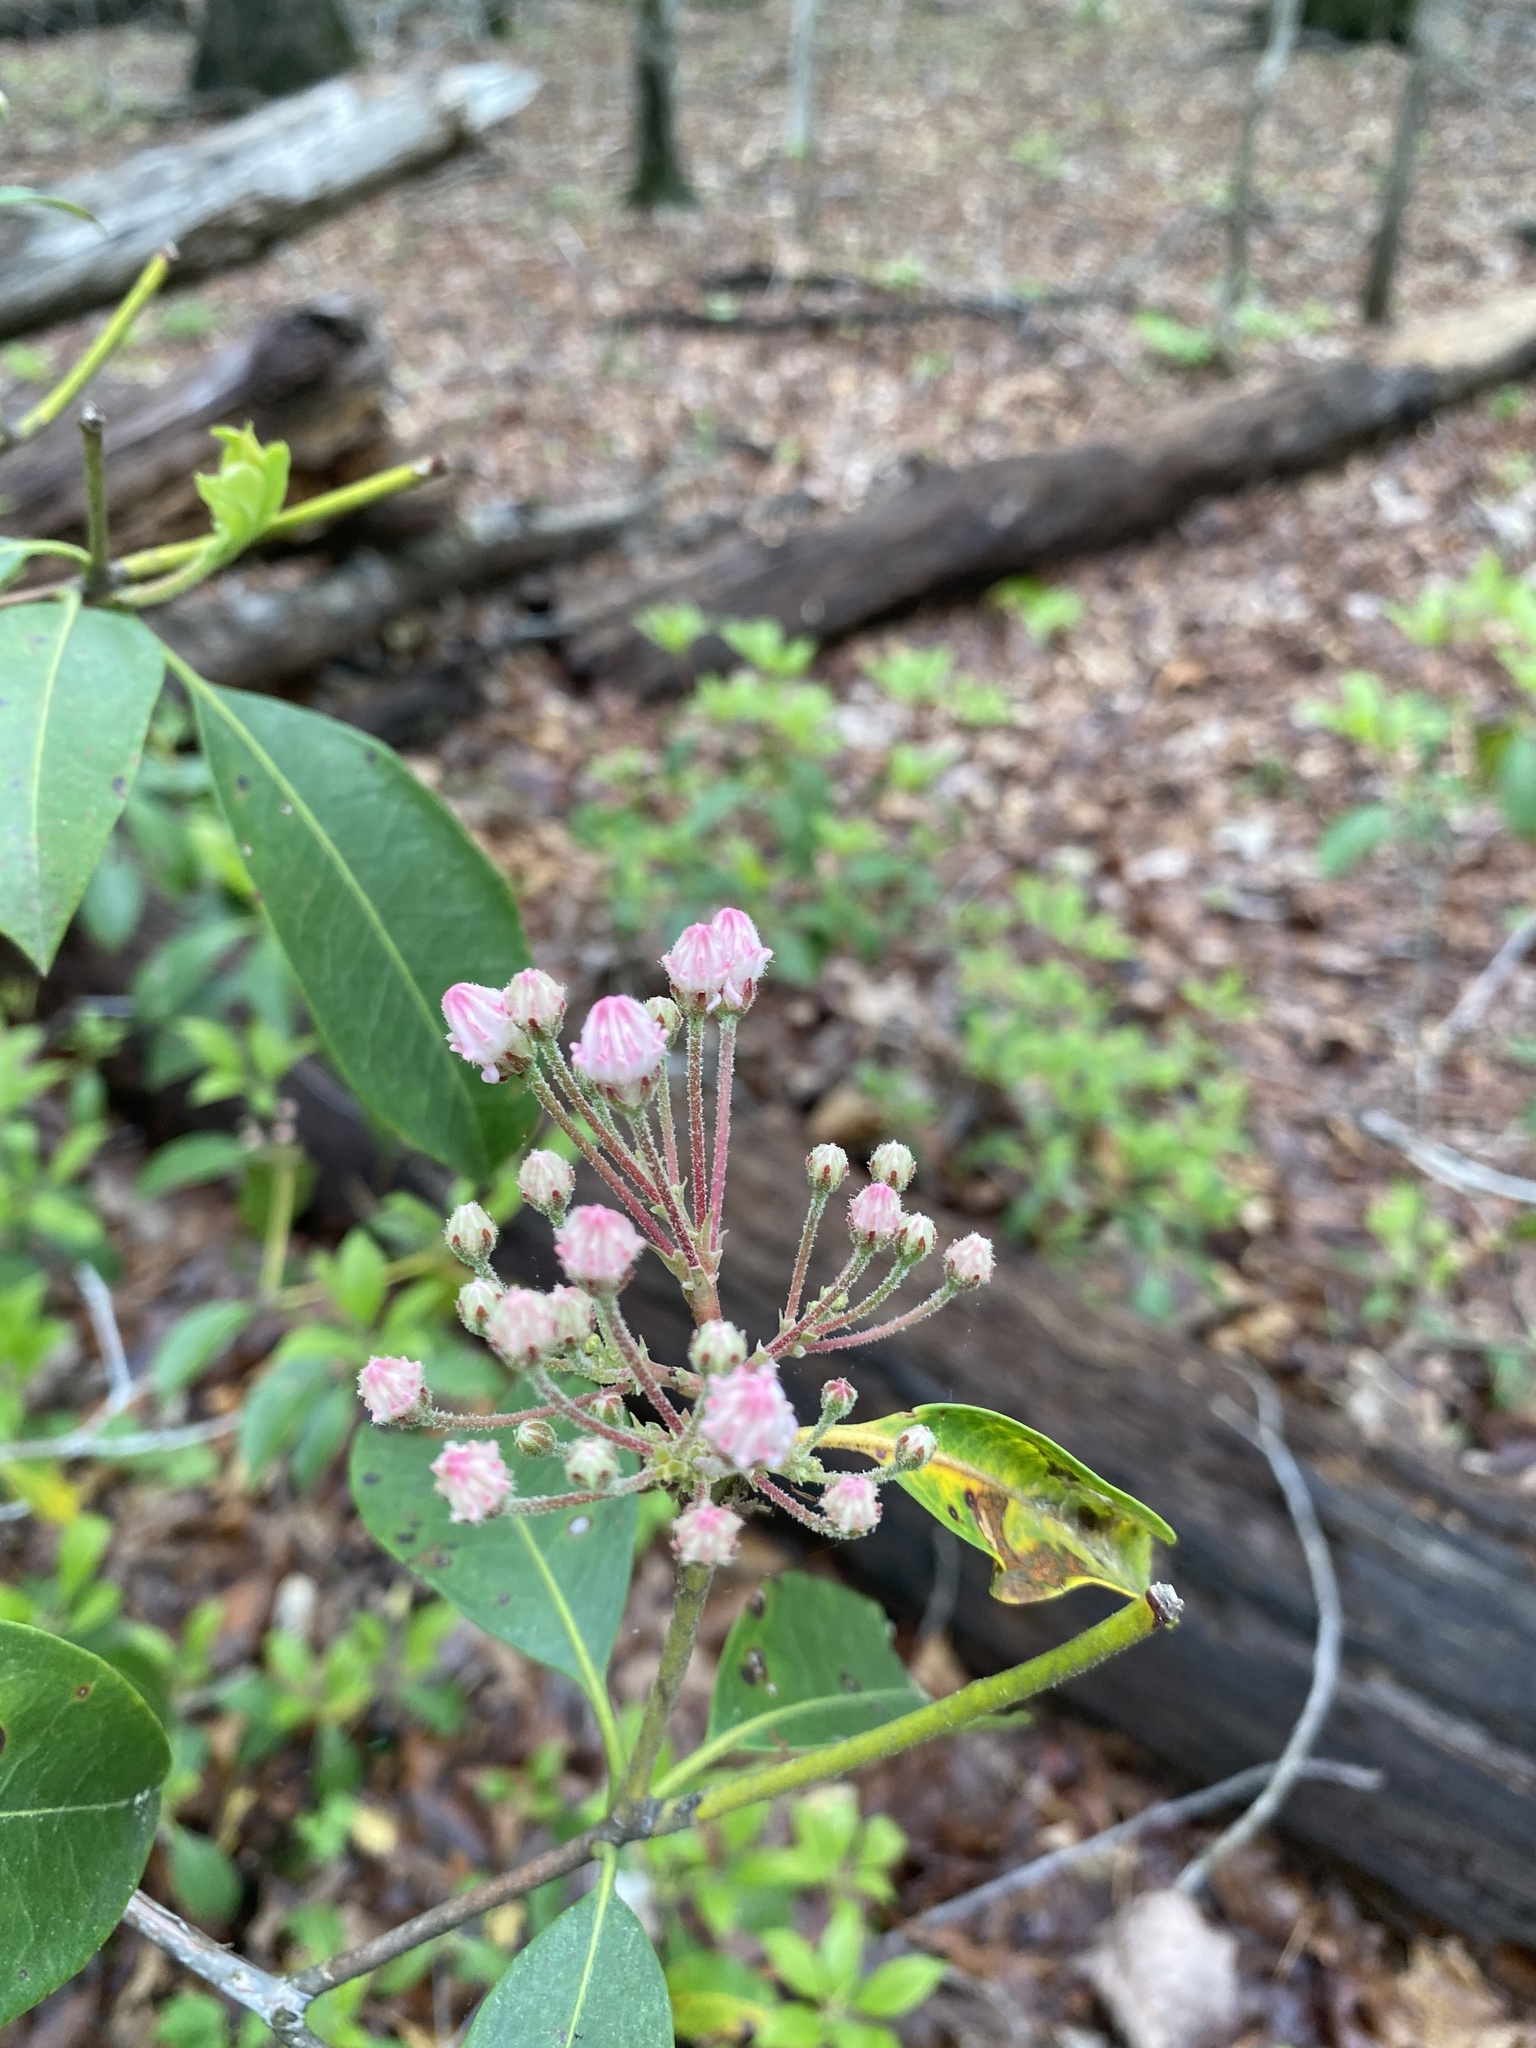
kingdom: Plantae
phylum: Tracheophyta
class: Magnoliopsida
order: Ericales
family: Ericaceae
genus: Kalmia
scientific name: Kalmia latifolia
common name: Mountain-laurel
